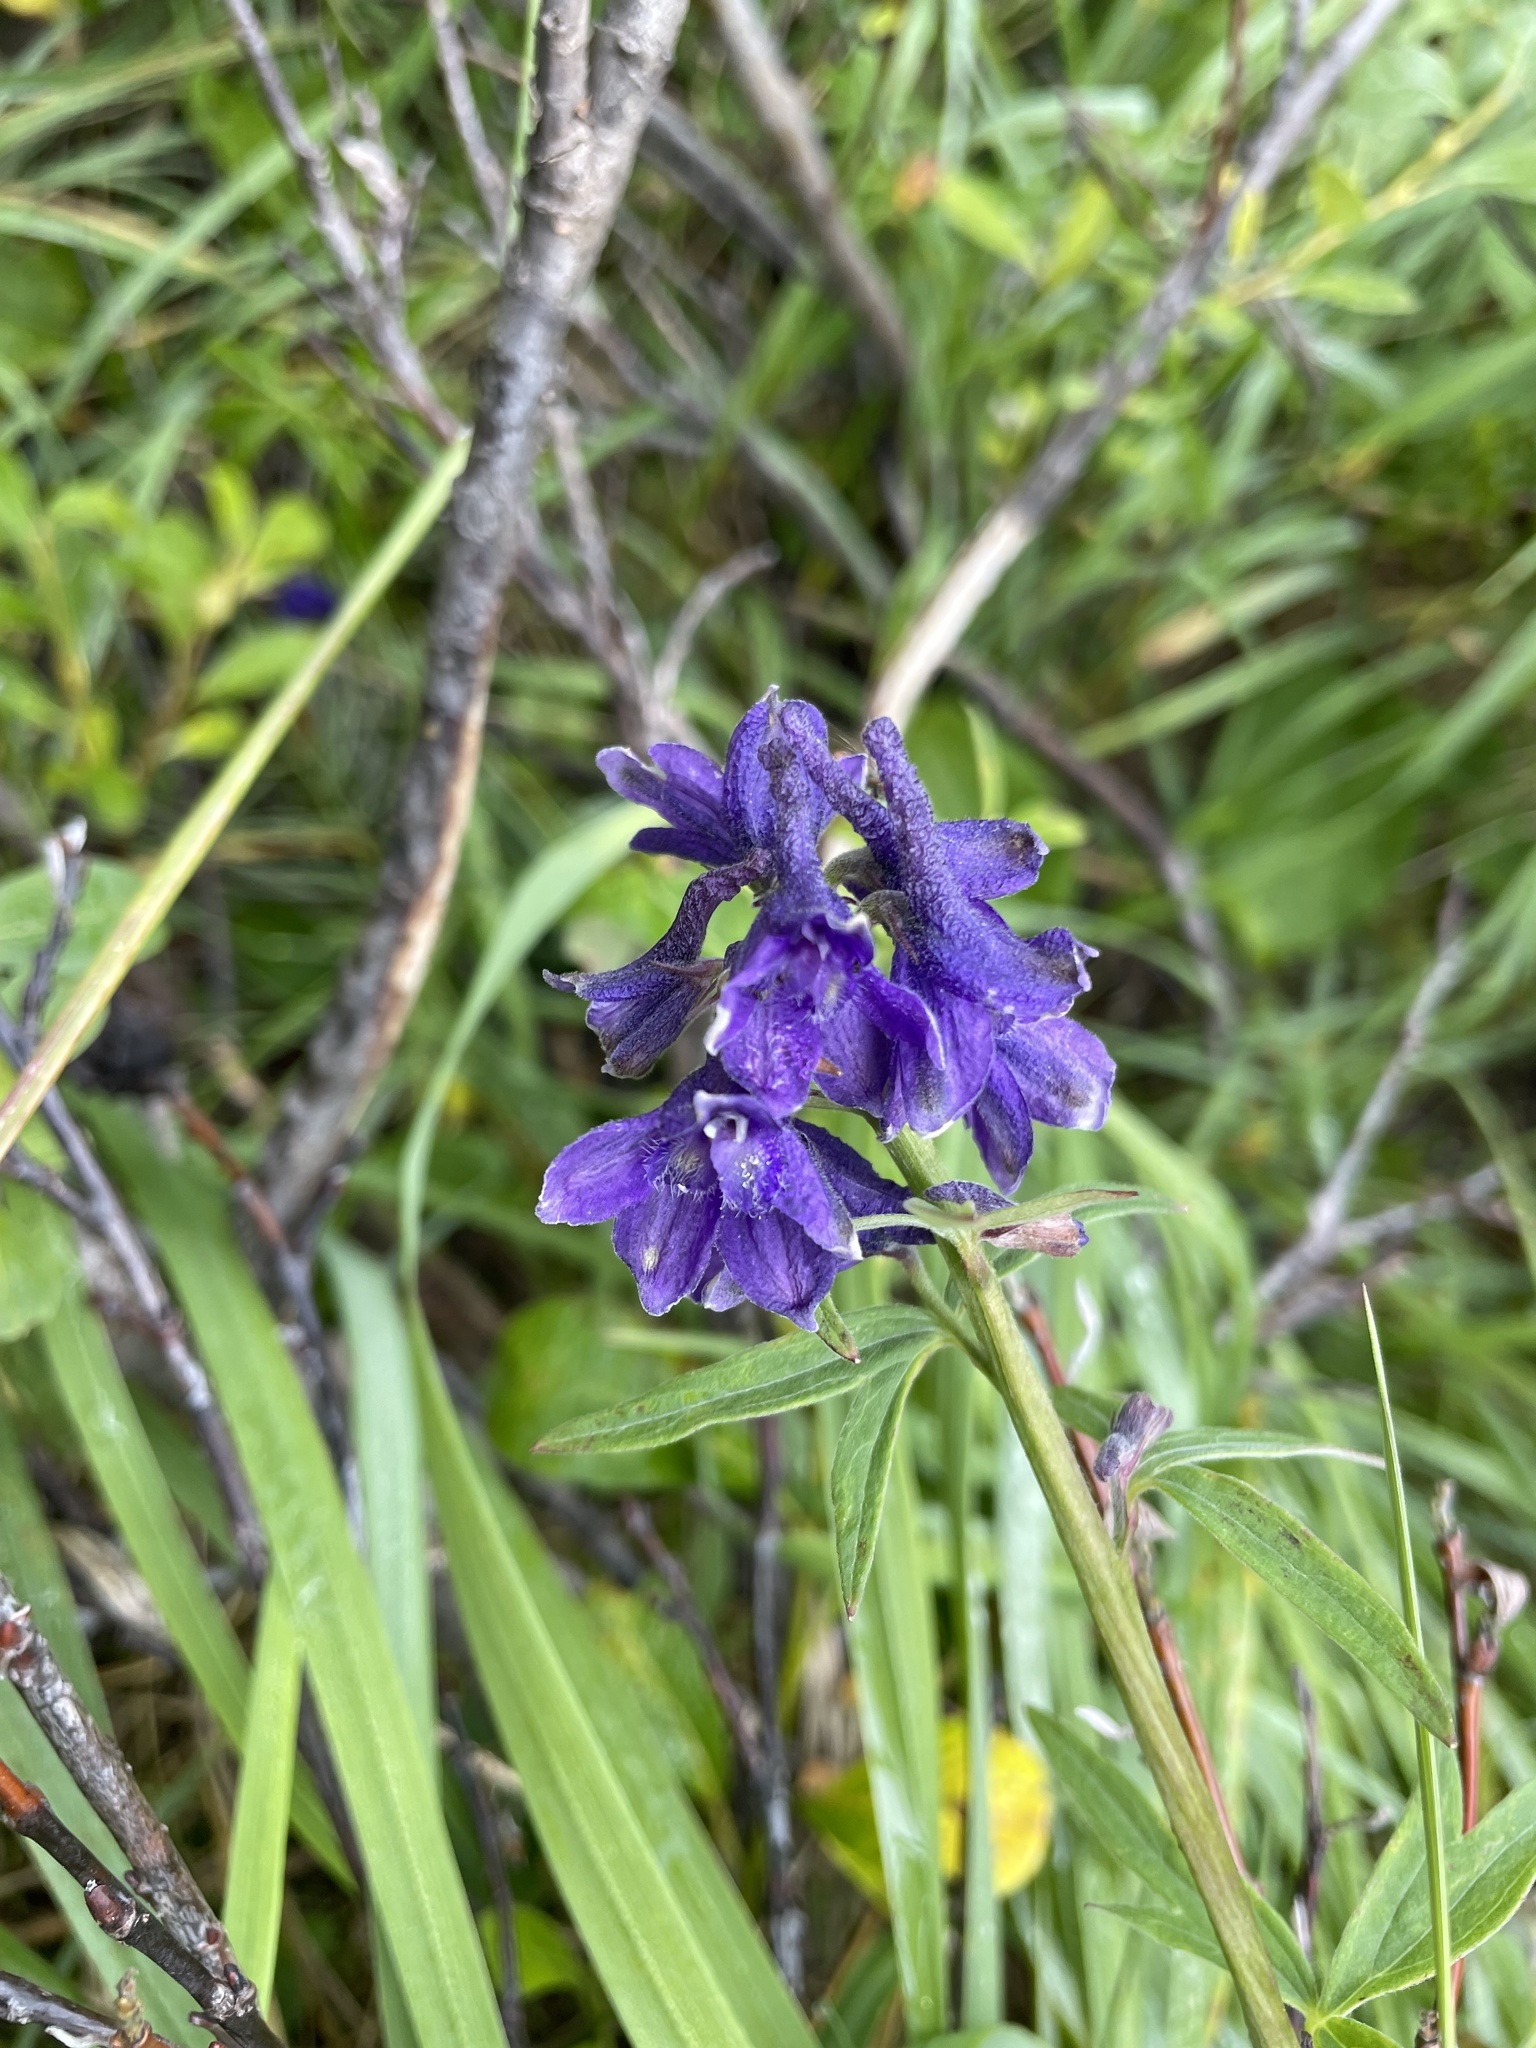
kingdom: Plantae
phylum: Tracheophyta
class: Magnoliopsida
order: Ranunculales
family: Ranunculaceae
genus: Delphinium
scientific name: Delphinium glaucum
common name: Brown's larkspur
